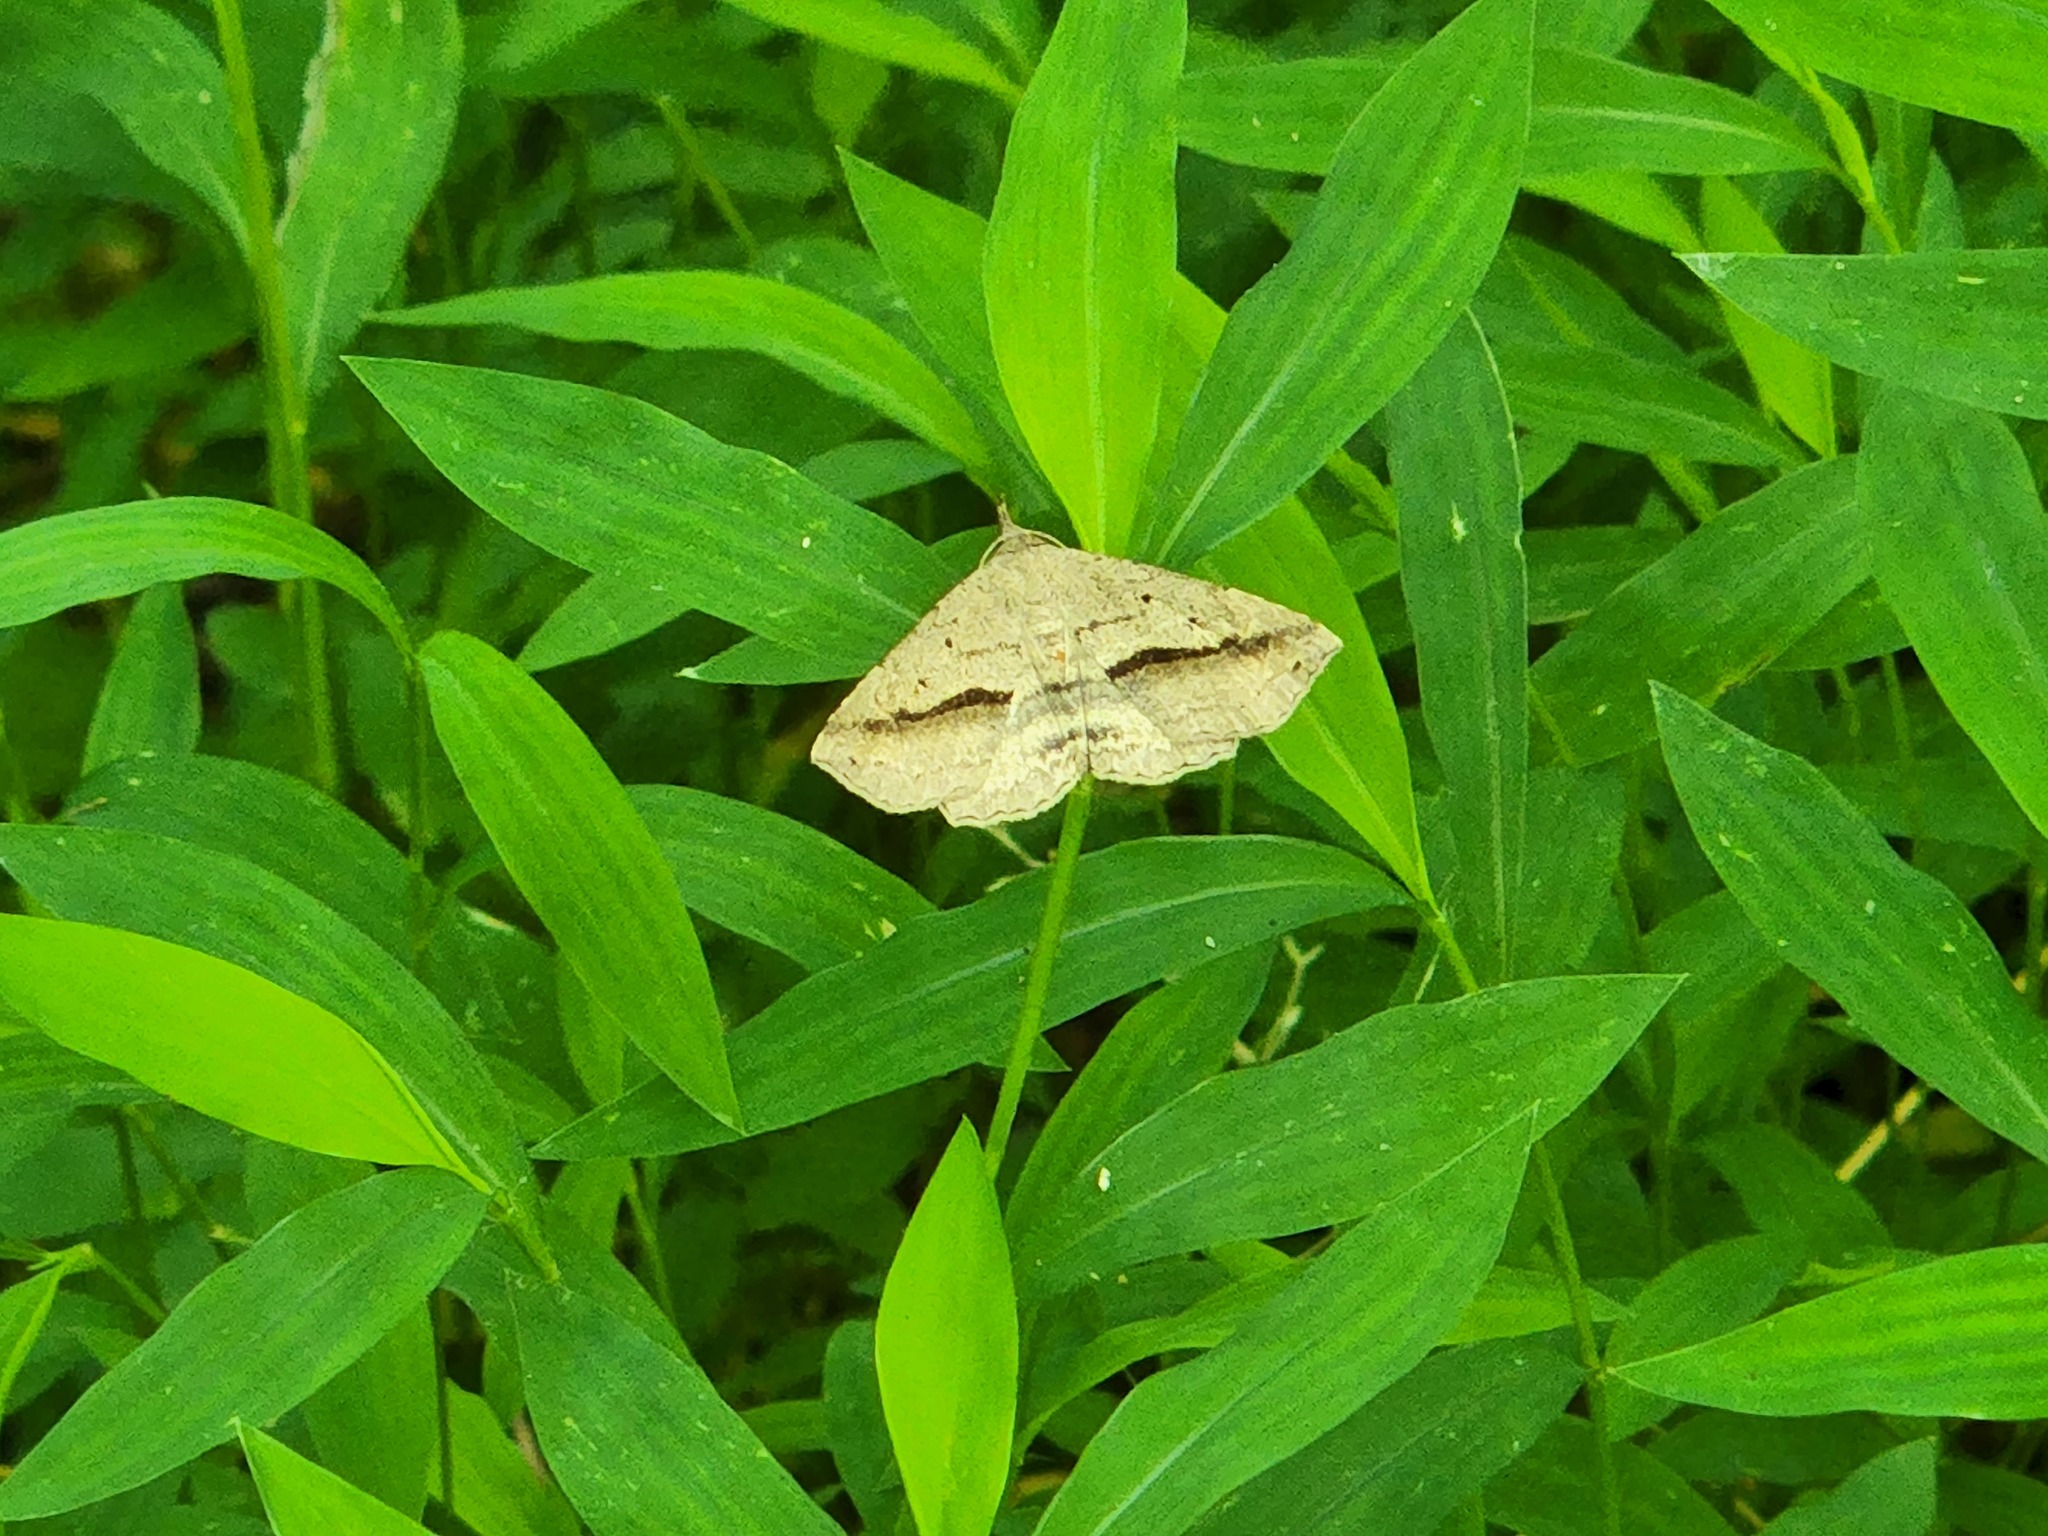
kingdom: Animalia
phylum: Arthropoda
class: Insecta
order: Lepidoptera
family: Erebidae
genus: Spargaloma
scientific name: Spargaloma perditalis
